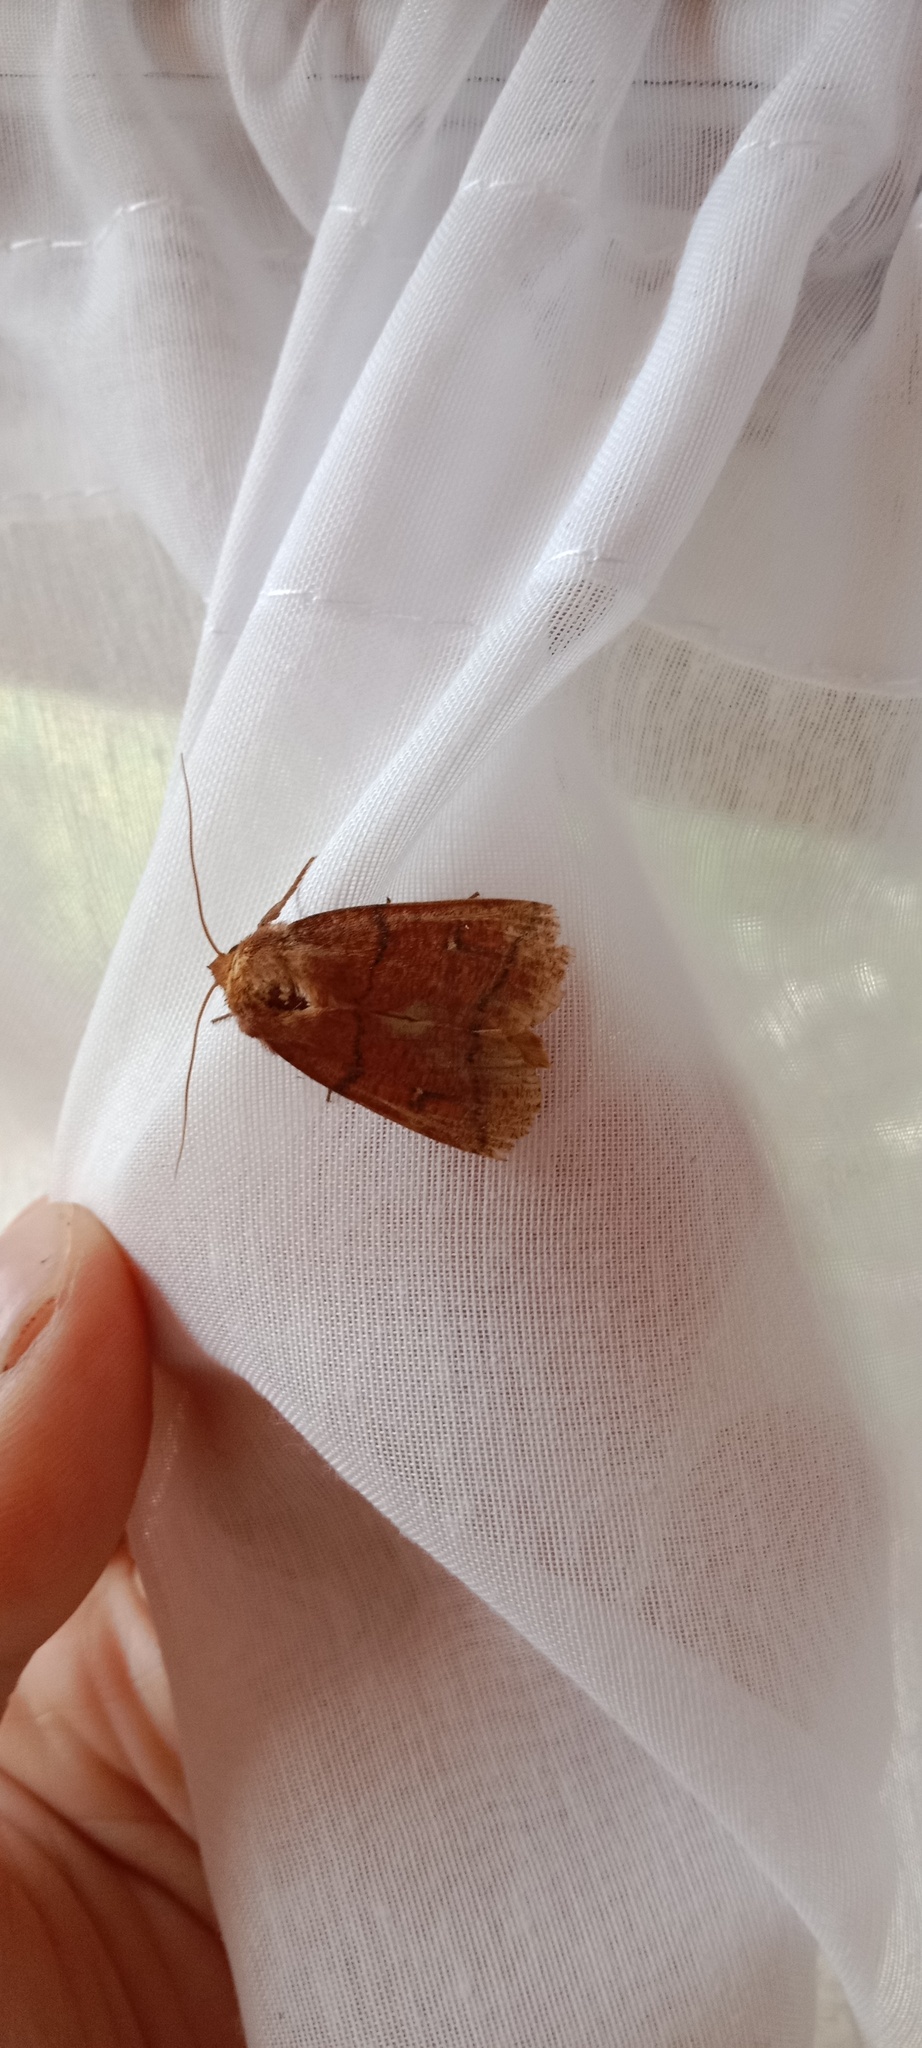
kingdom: Animalia
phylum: Arthropoda
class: Insecta
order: Lepidoptera
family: Noctuidae
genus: Mythimna
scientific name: Mythimna turca
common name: Double line
